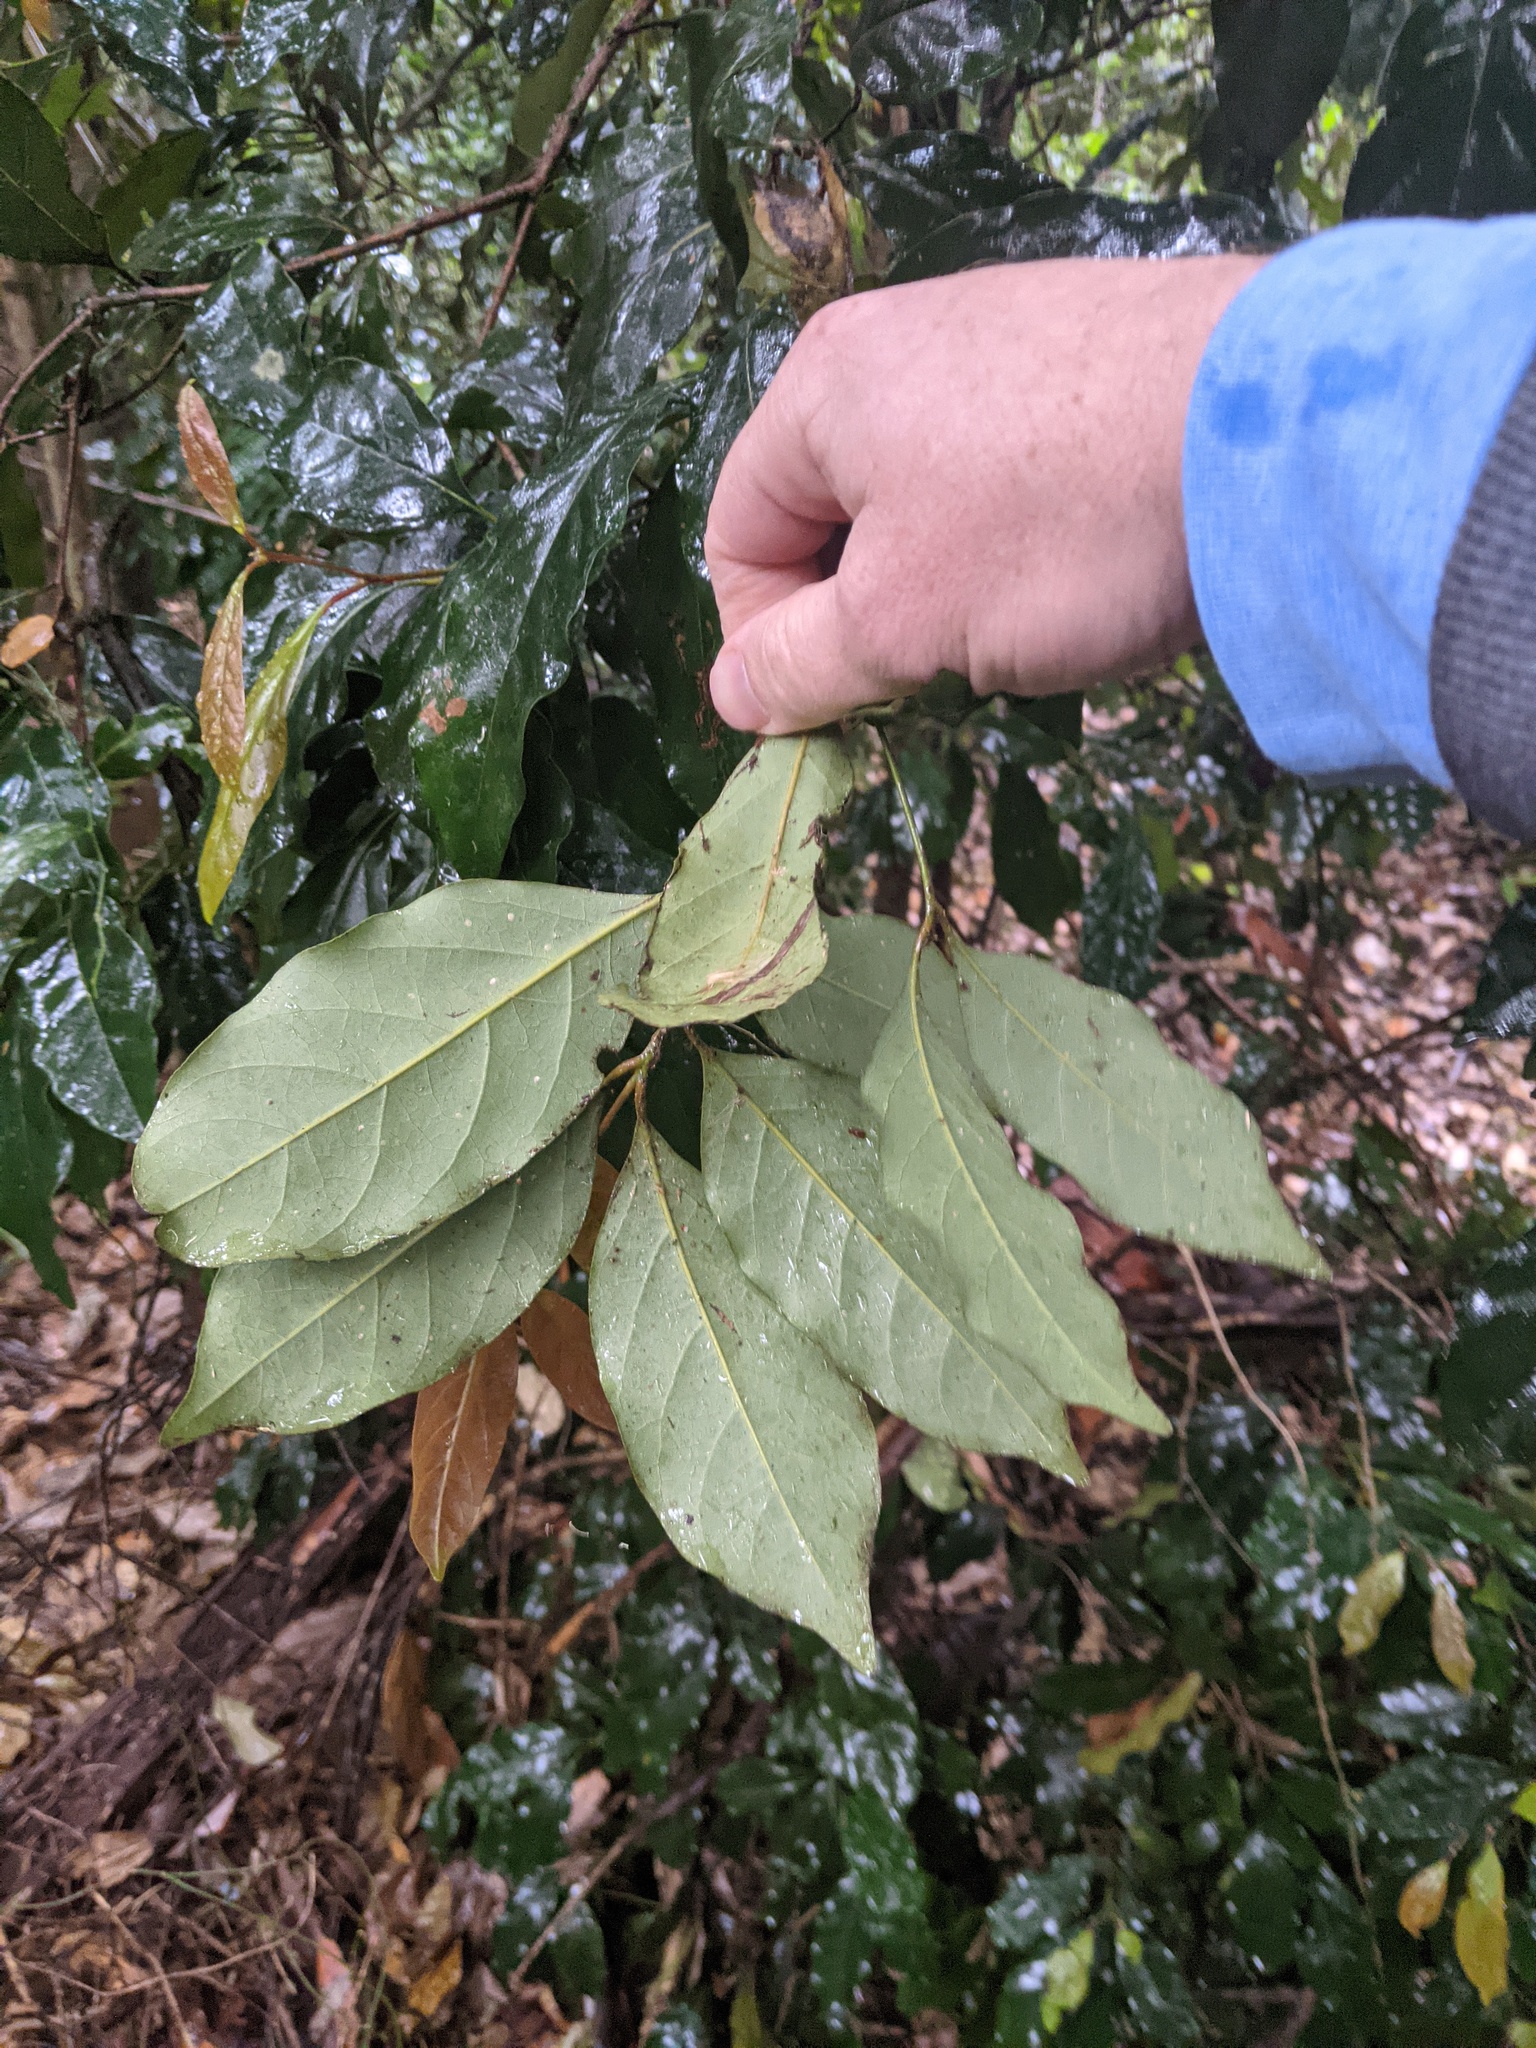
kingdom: Plantae
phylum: Tracheophyta
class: Magnoliopsida
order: Laurales
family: Lauraceae
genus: Cryptocarya
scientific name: Cryptocarya macdonaldii
